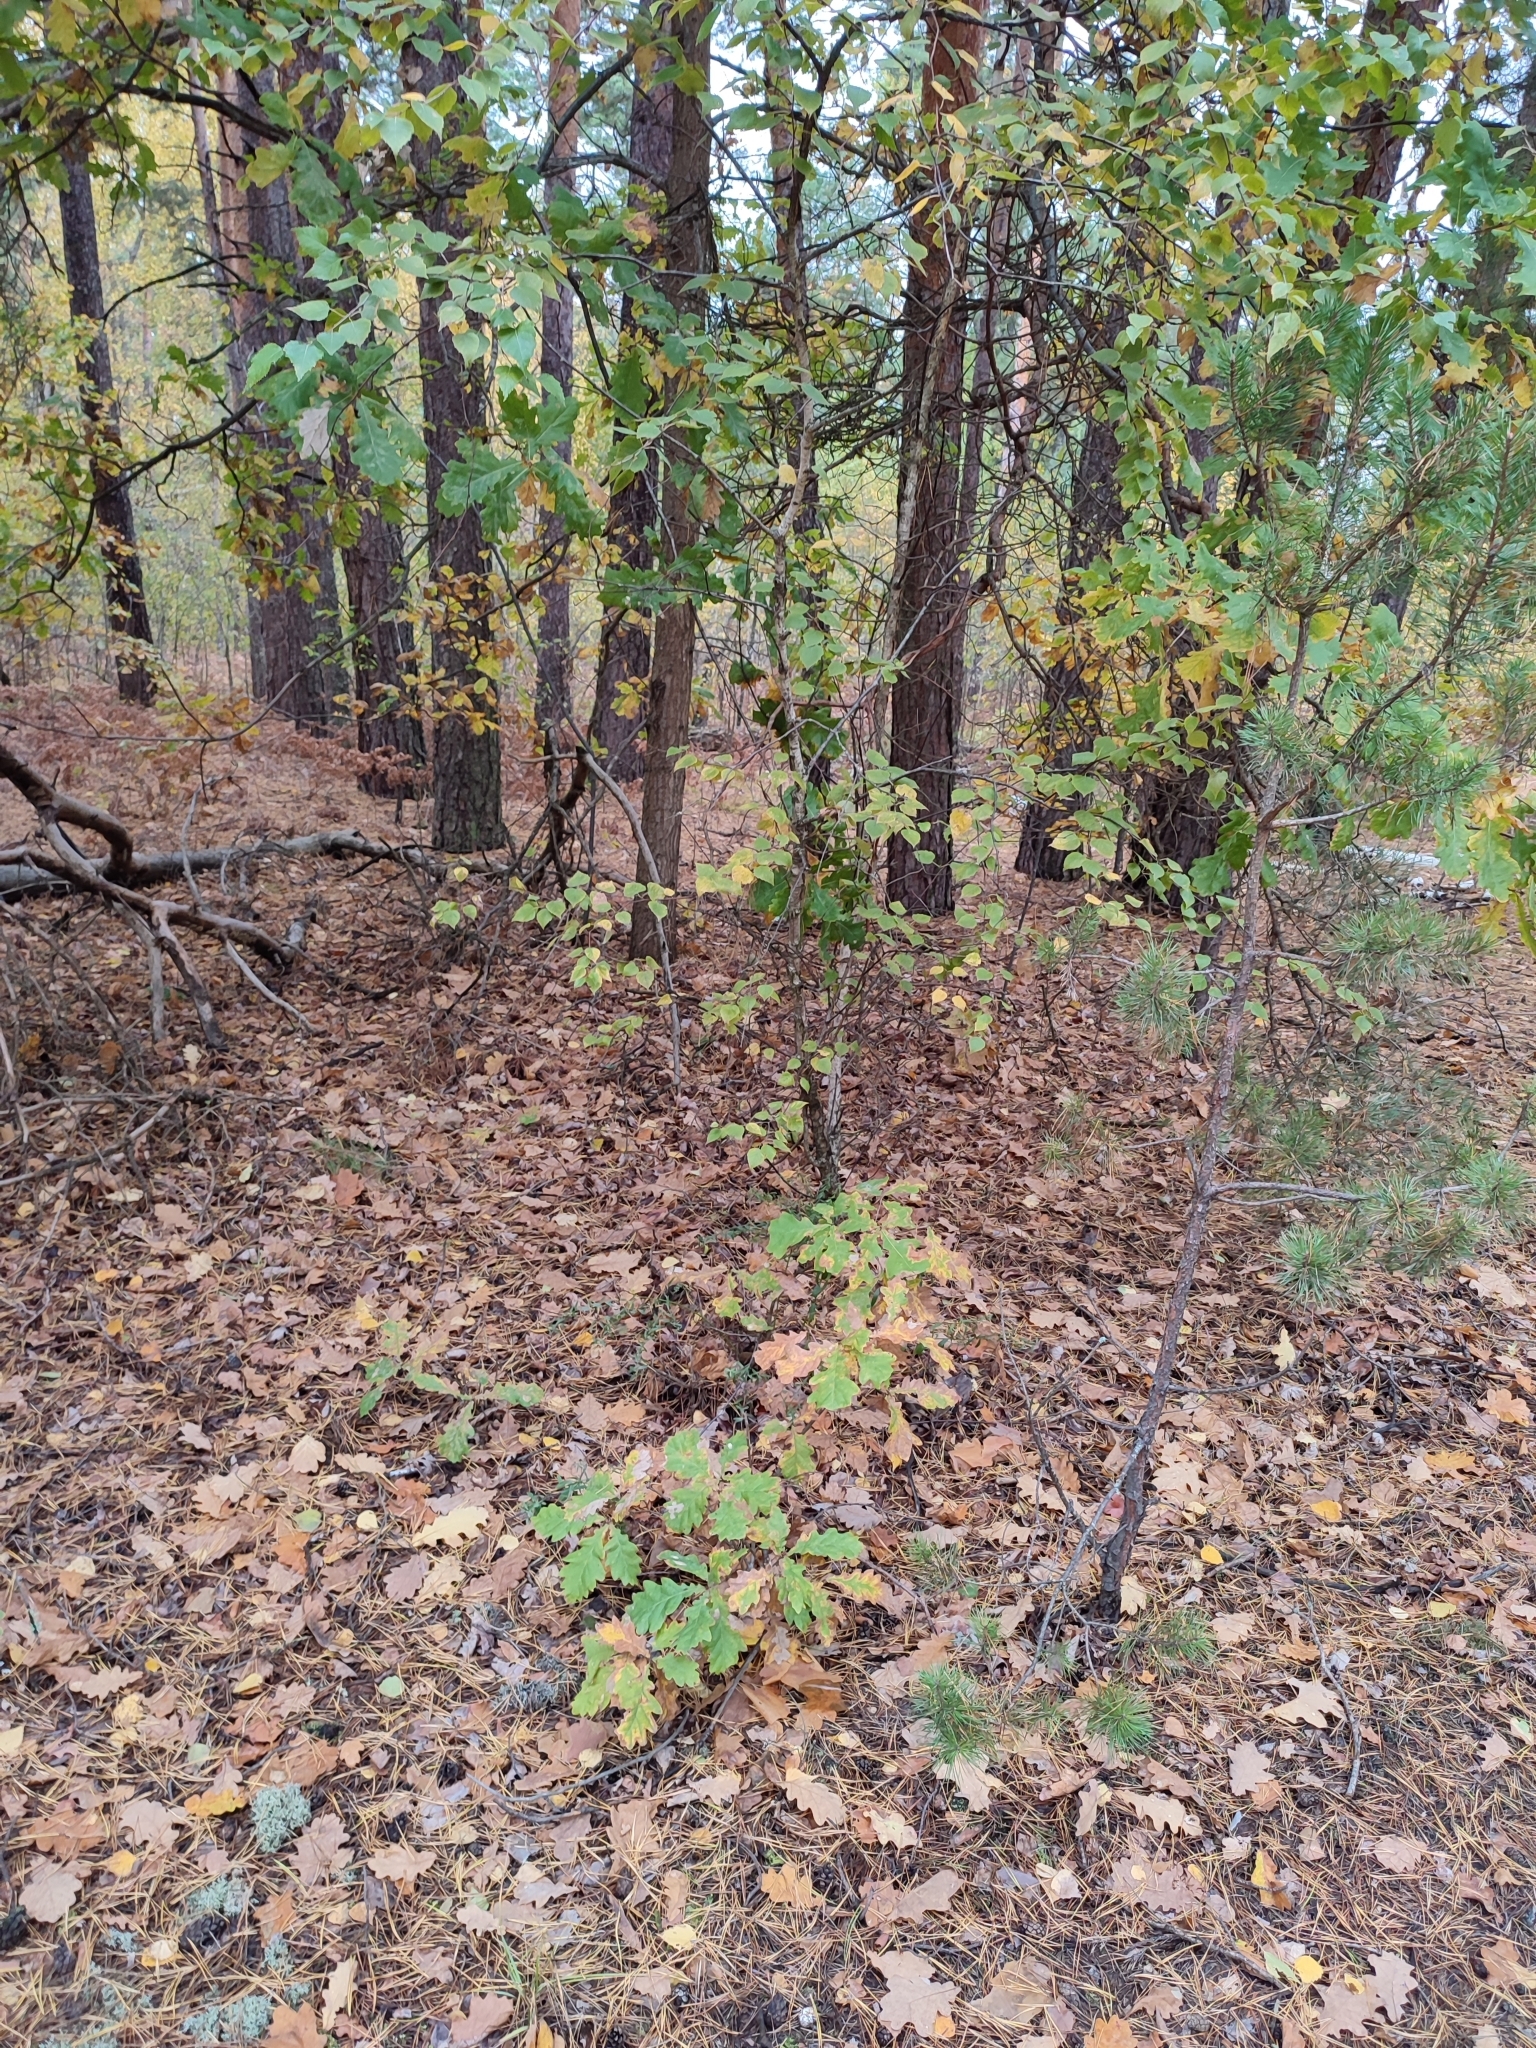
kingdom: Plantae
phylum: Tracheophyta
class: Magnoliopsida
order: Fagales
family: Fagaceae
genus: Quercus
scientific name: Quercus robur
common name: Pedunculate oak
